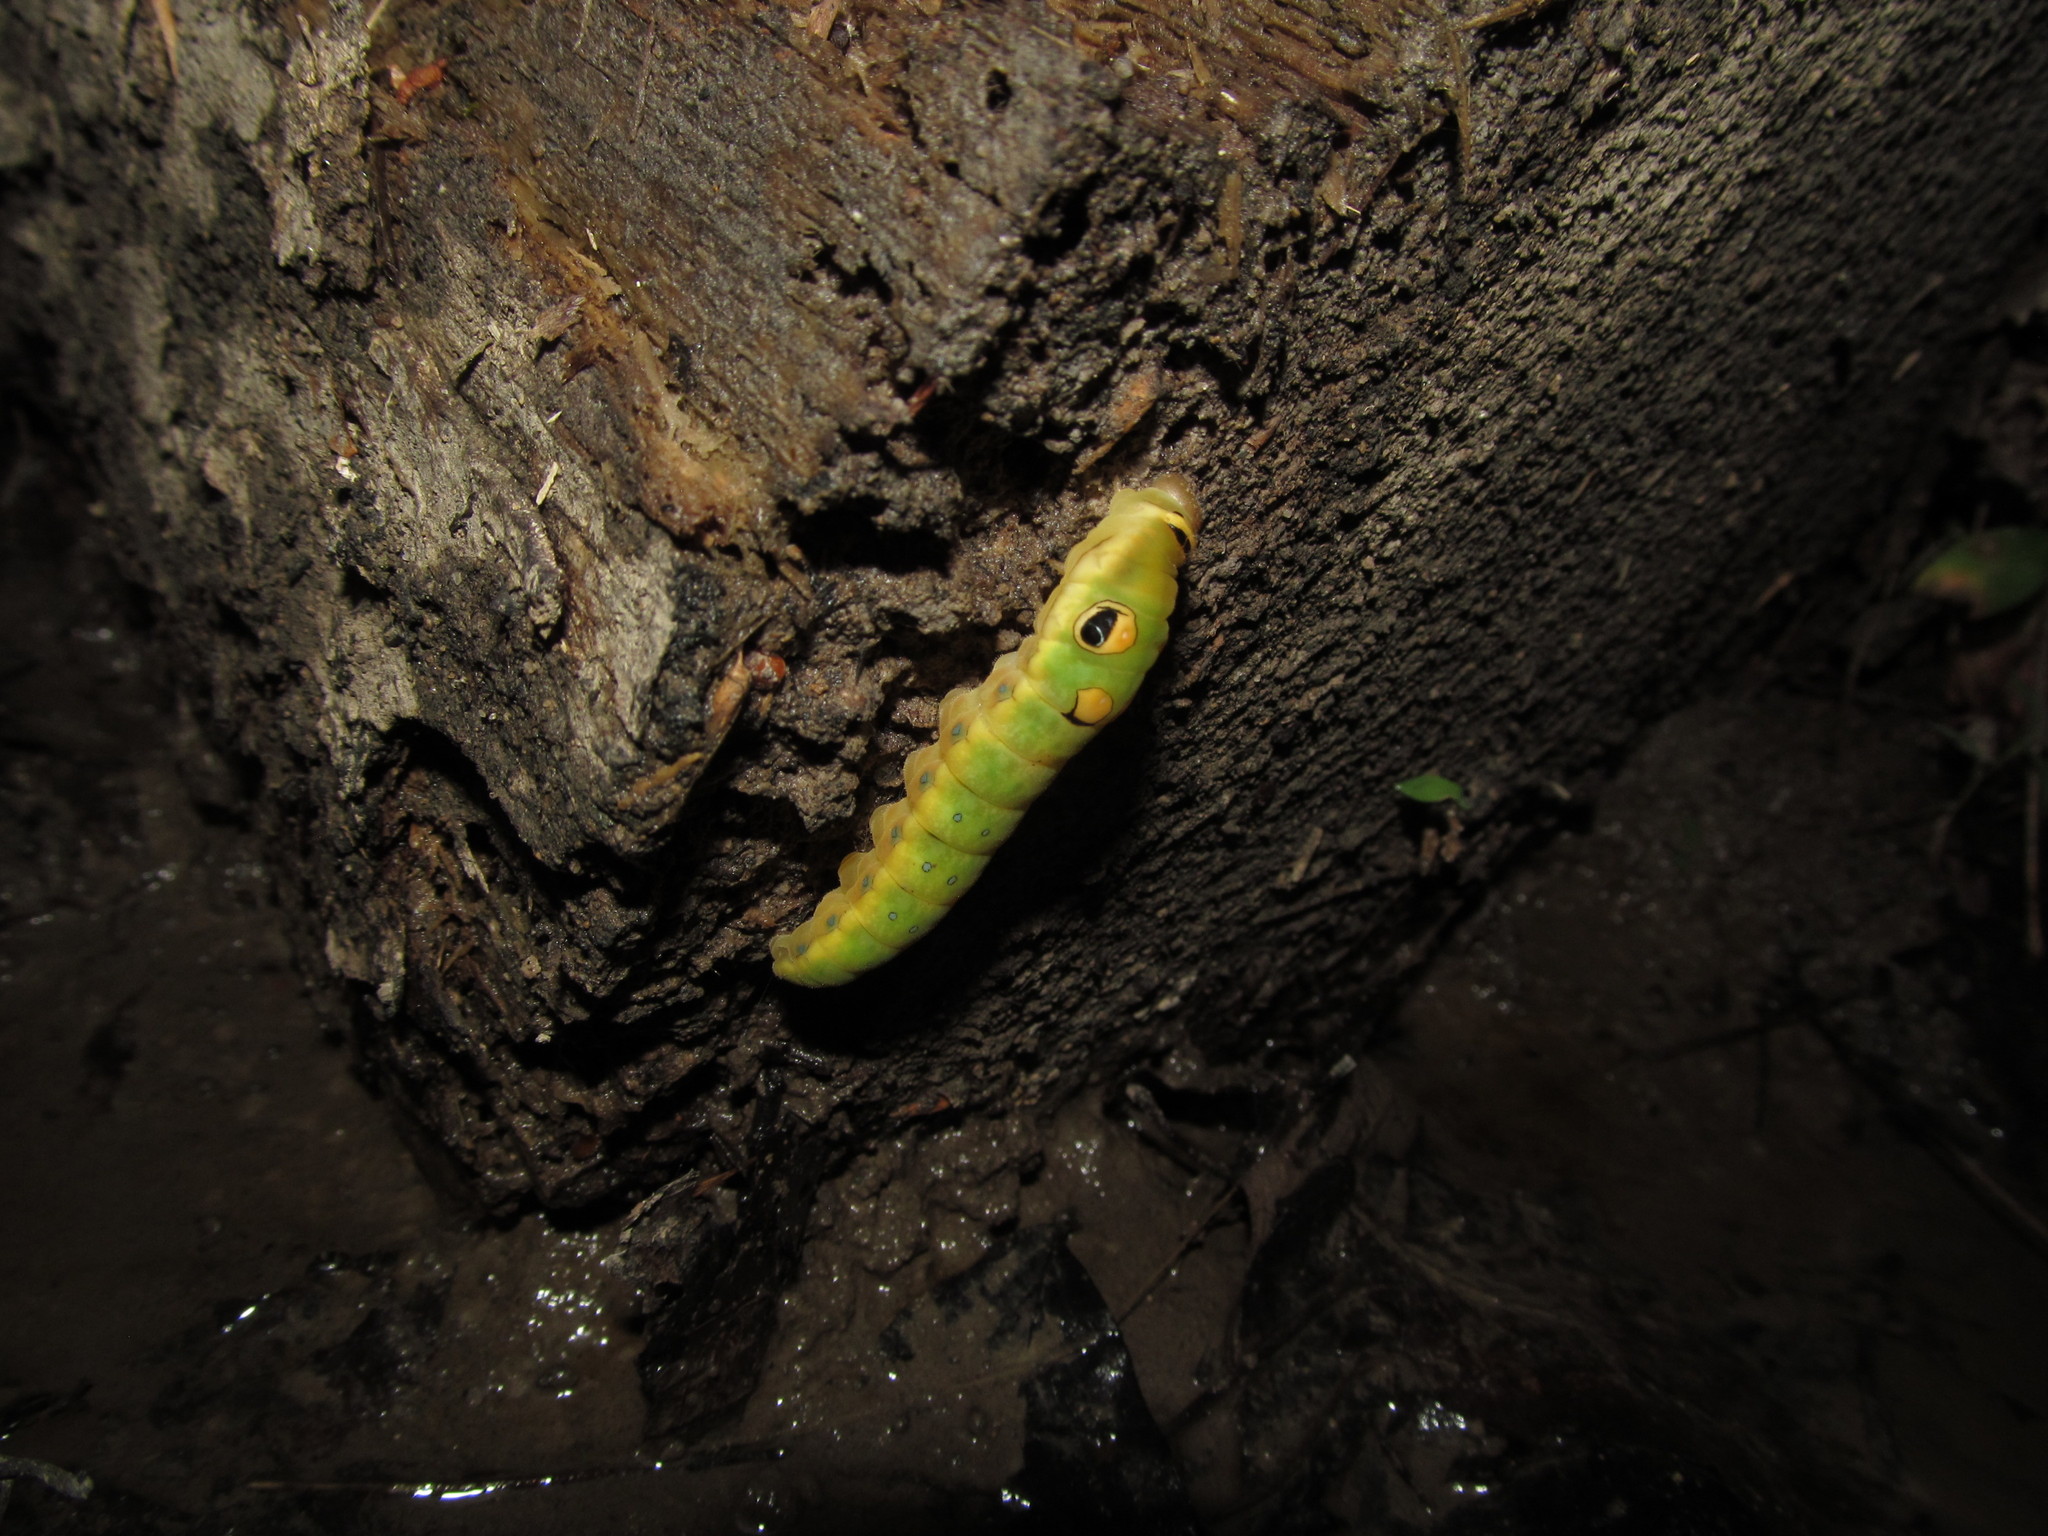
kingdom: Animalia
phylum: Arthropoda
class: Insecta
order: Lepidoptera
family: Papilionidae
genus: Papilio
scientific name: Papilio troilus
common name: Spicebush swallowtail
